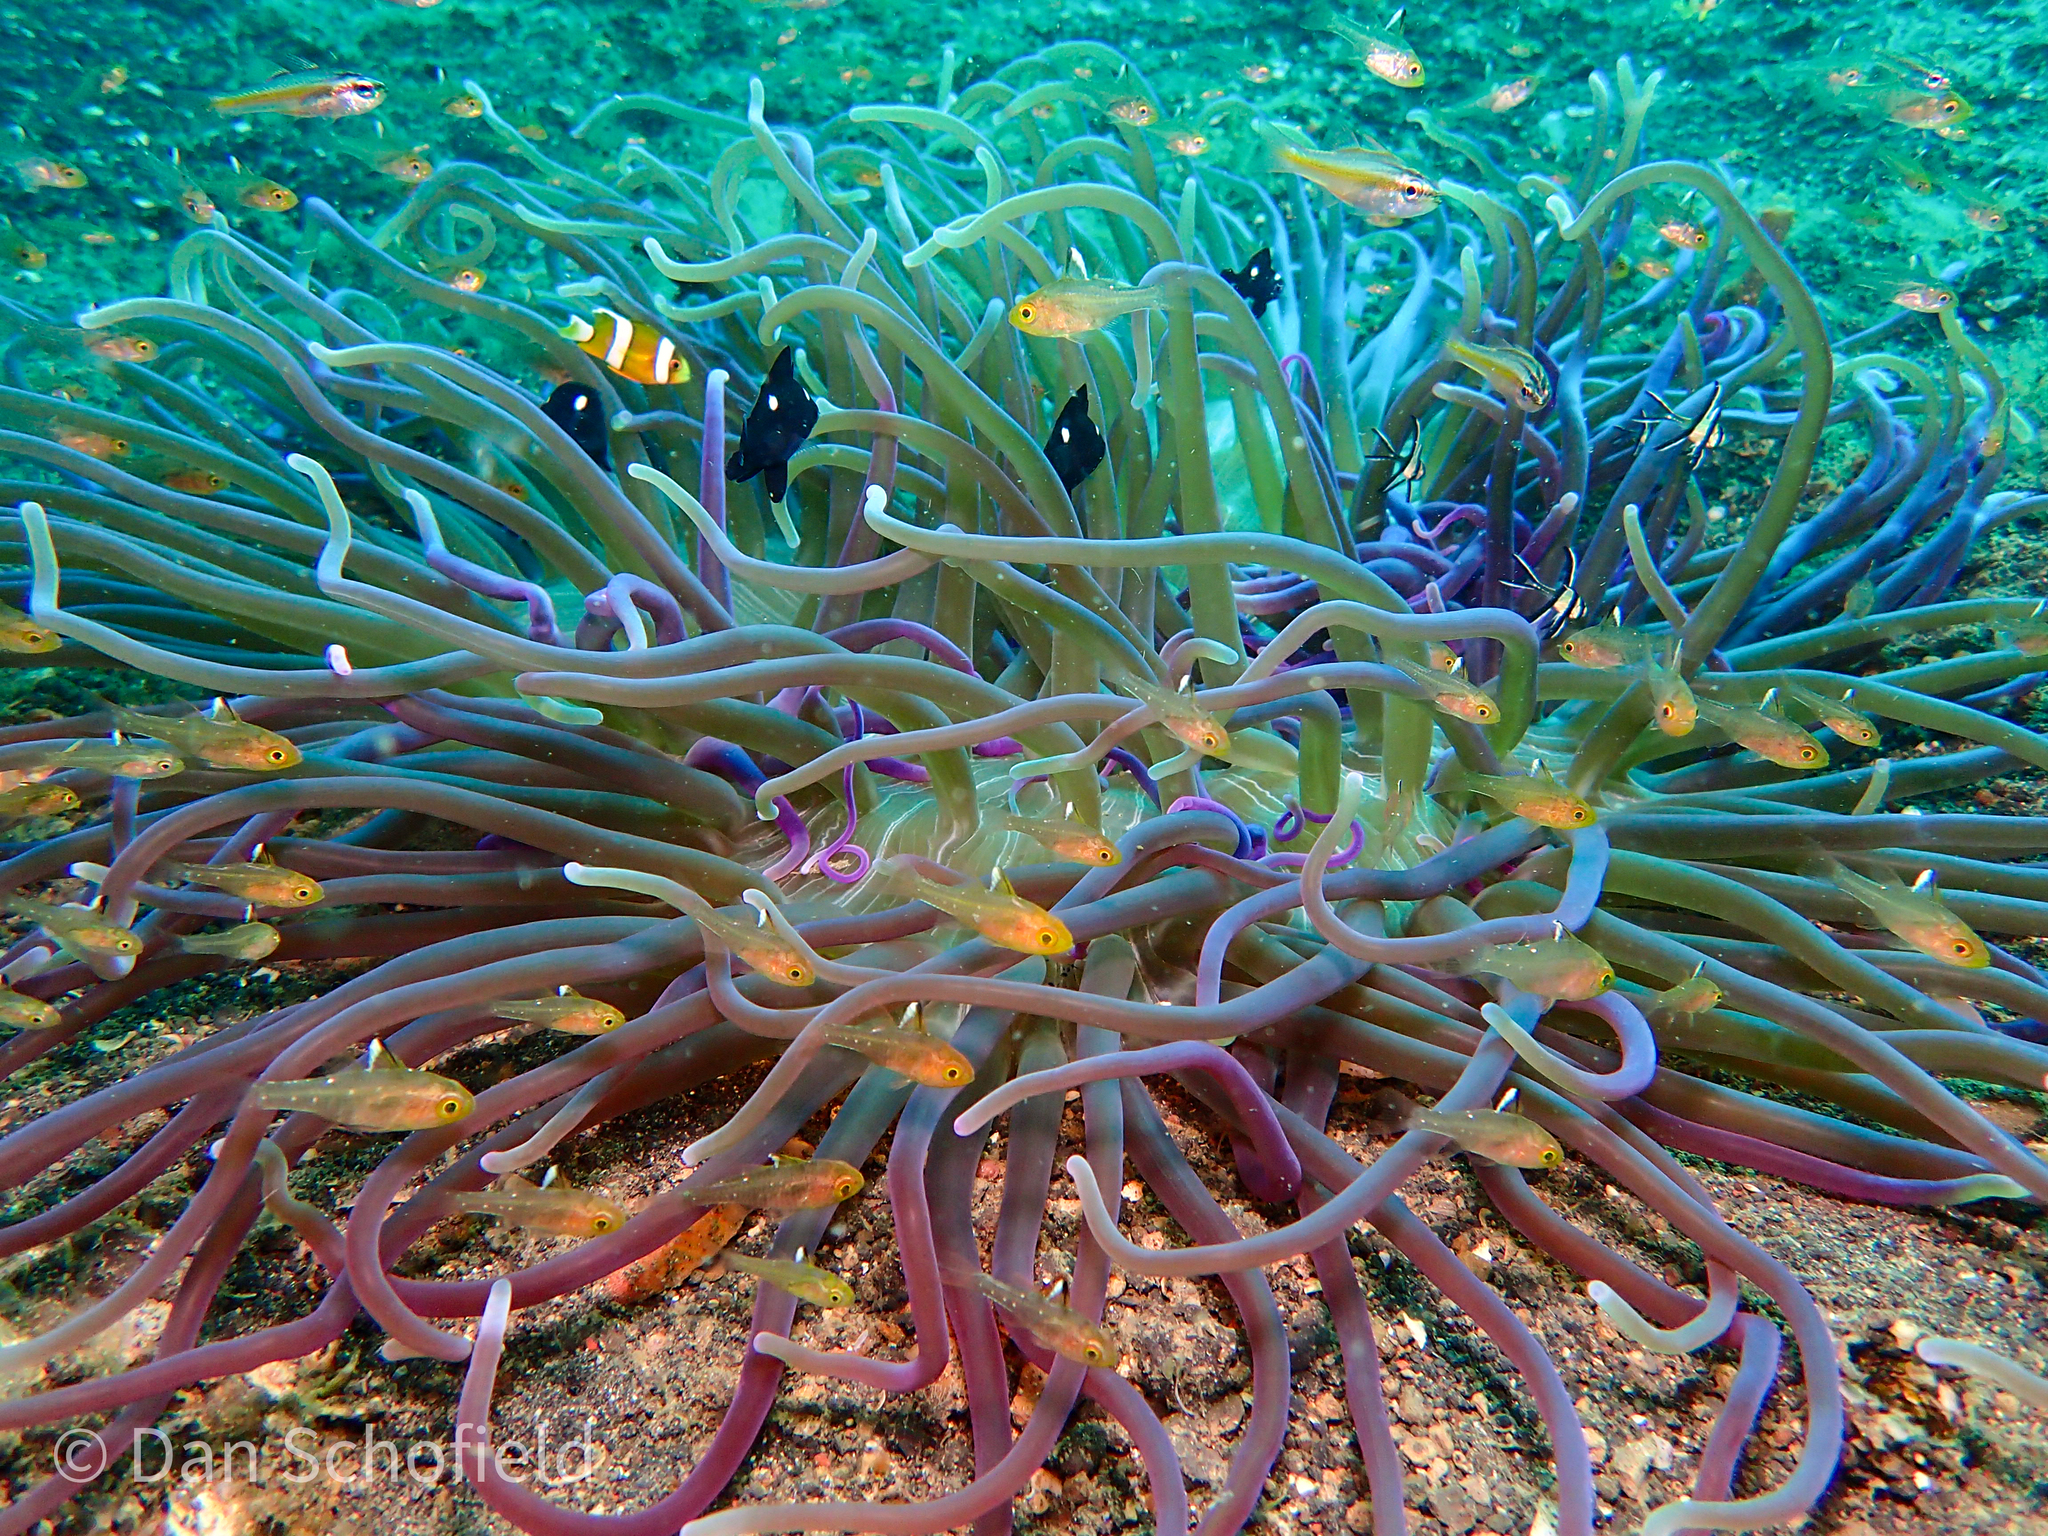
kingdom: Animalia
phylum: Cnidaria
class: Anthozoa
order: Actiniaria
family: Heteractidae
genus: Heteractis
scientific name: Heteractis
